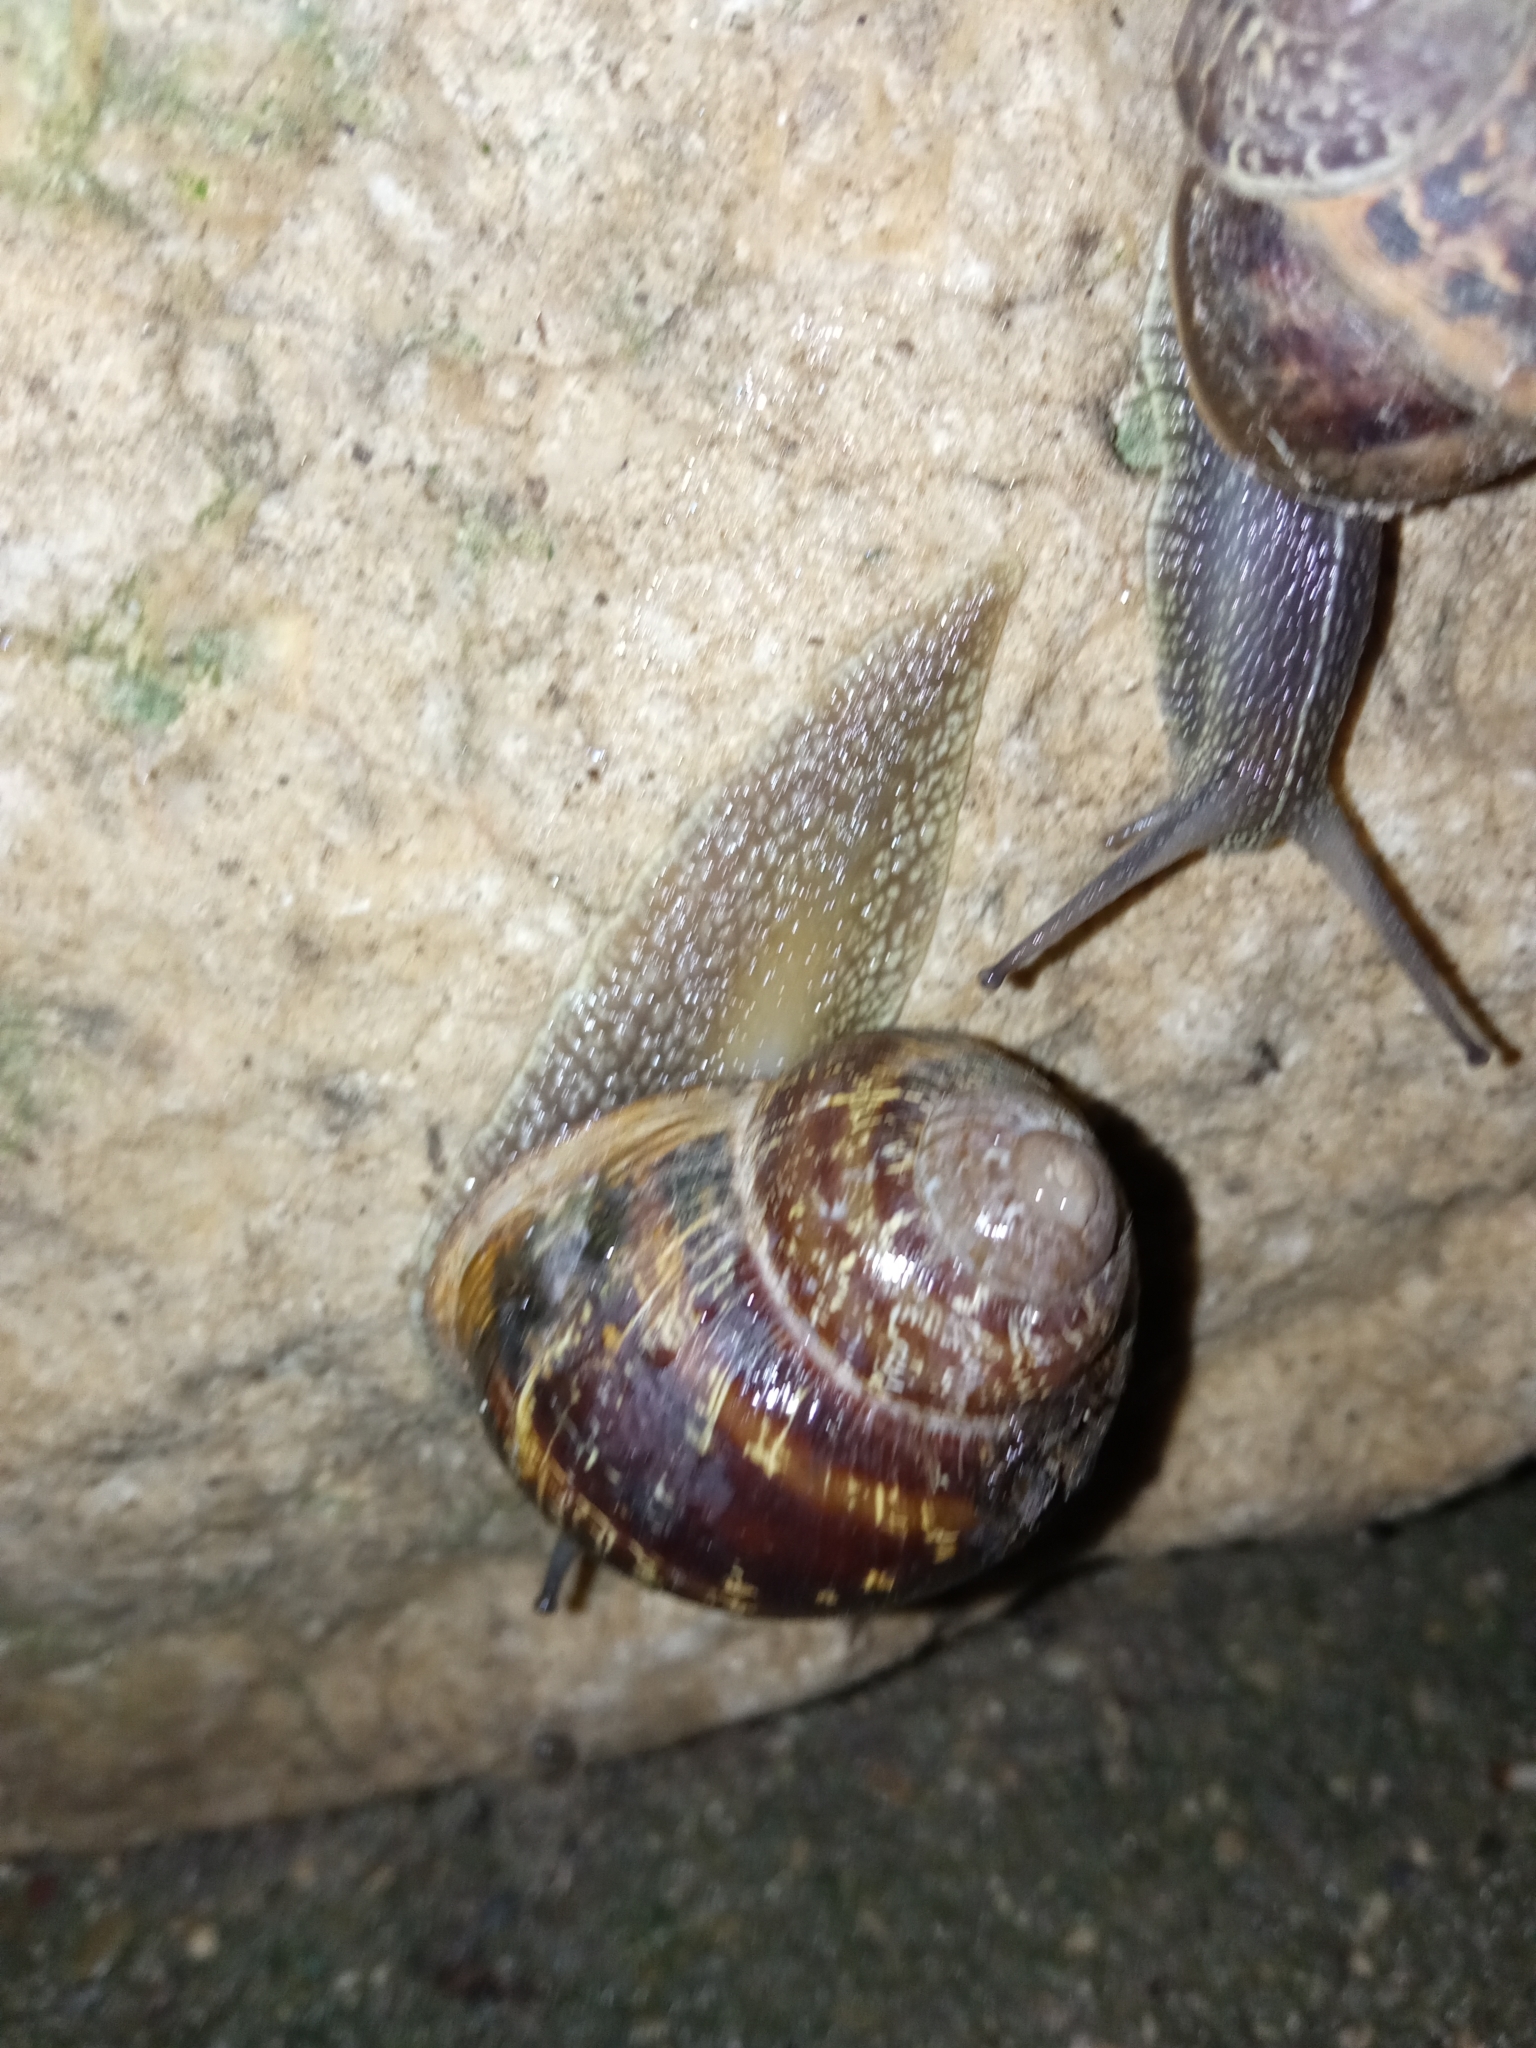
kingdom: Animalia
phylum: Mollusca
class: Gastropoda
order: Stylommatophora
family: Helicidae
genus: Cornu
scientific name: Cornu aspersum
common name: Brown garden snail
